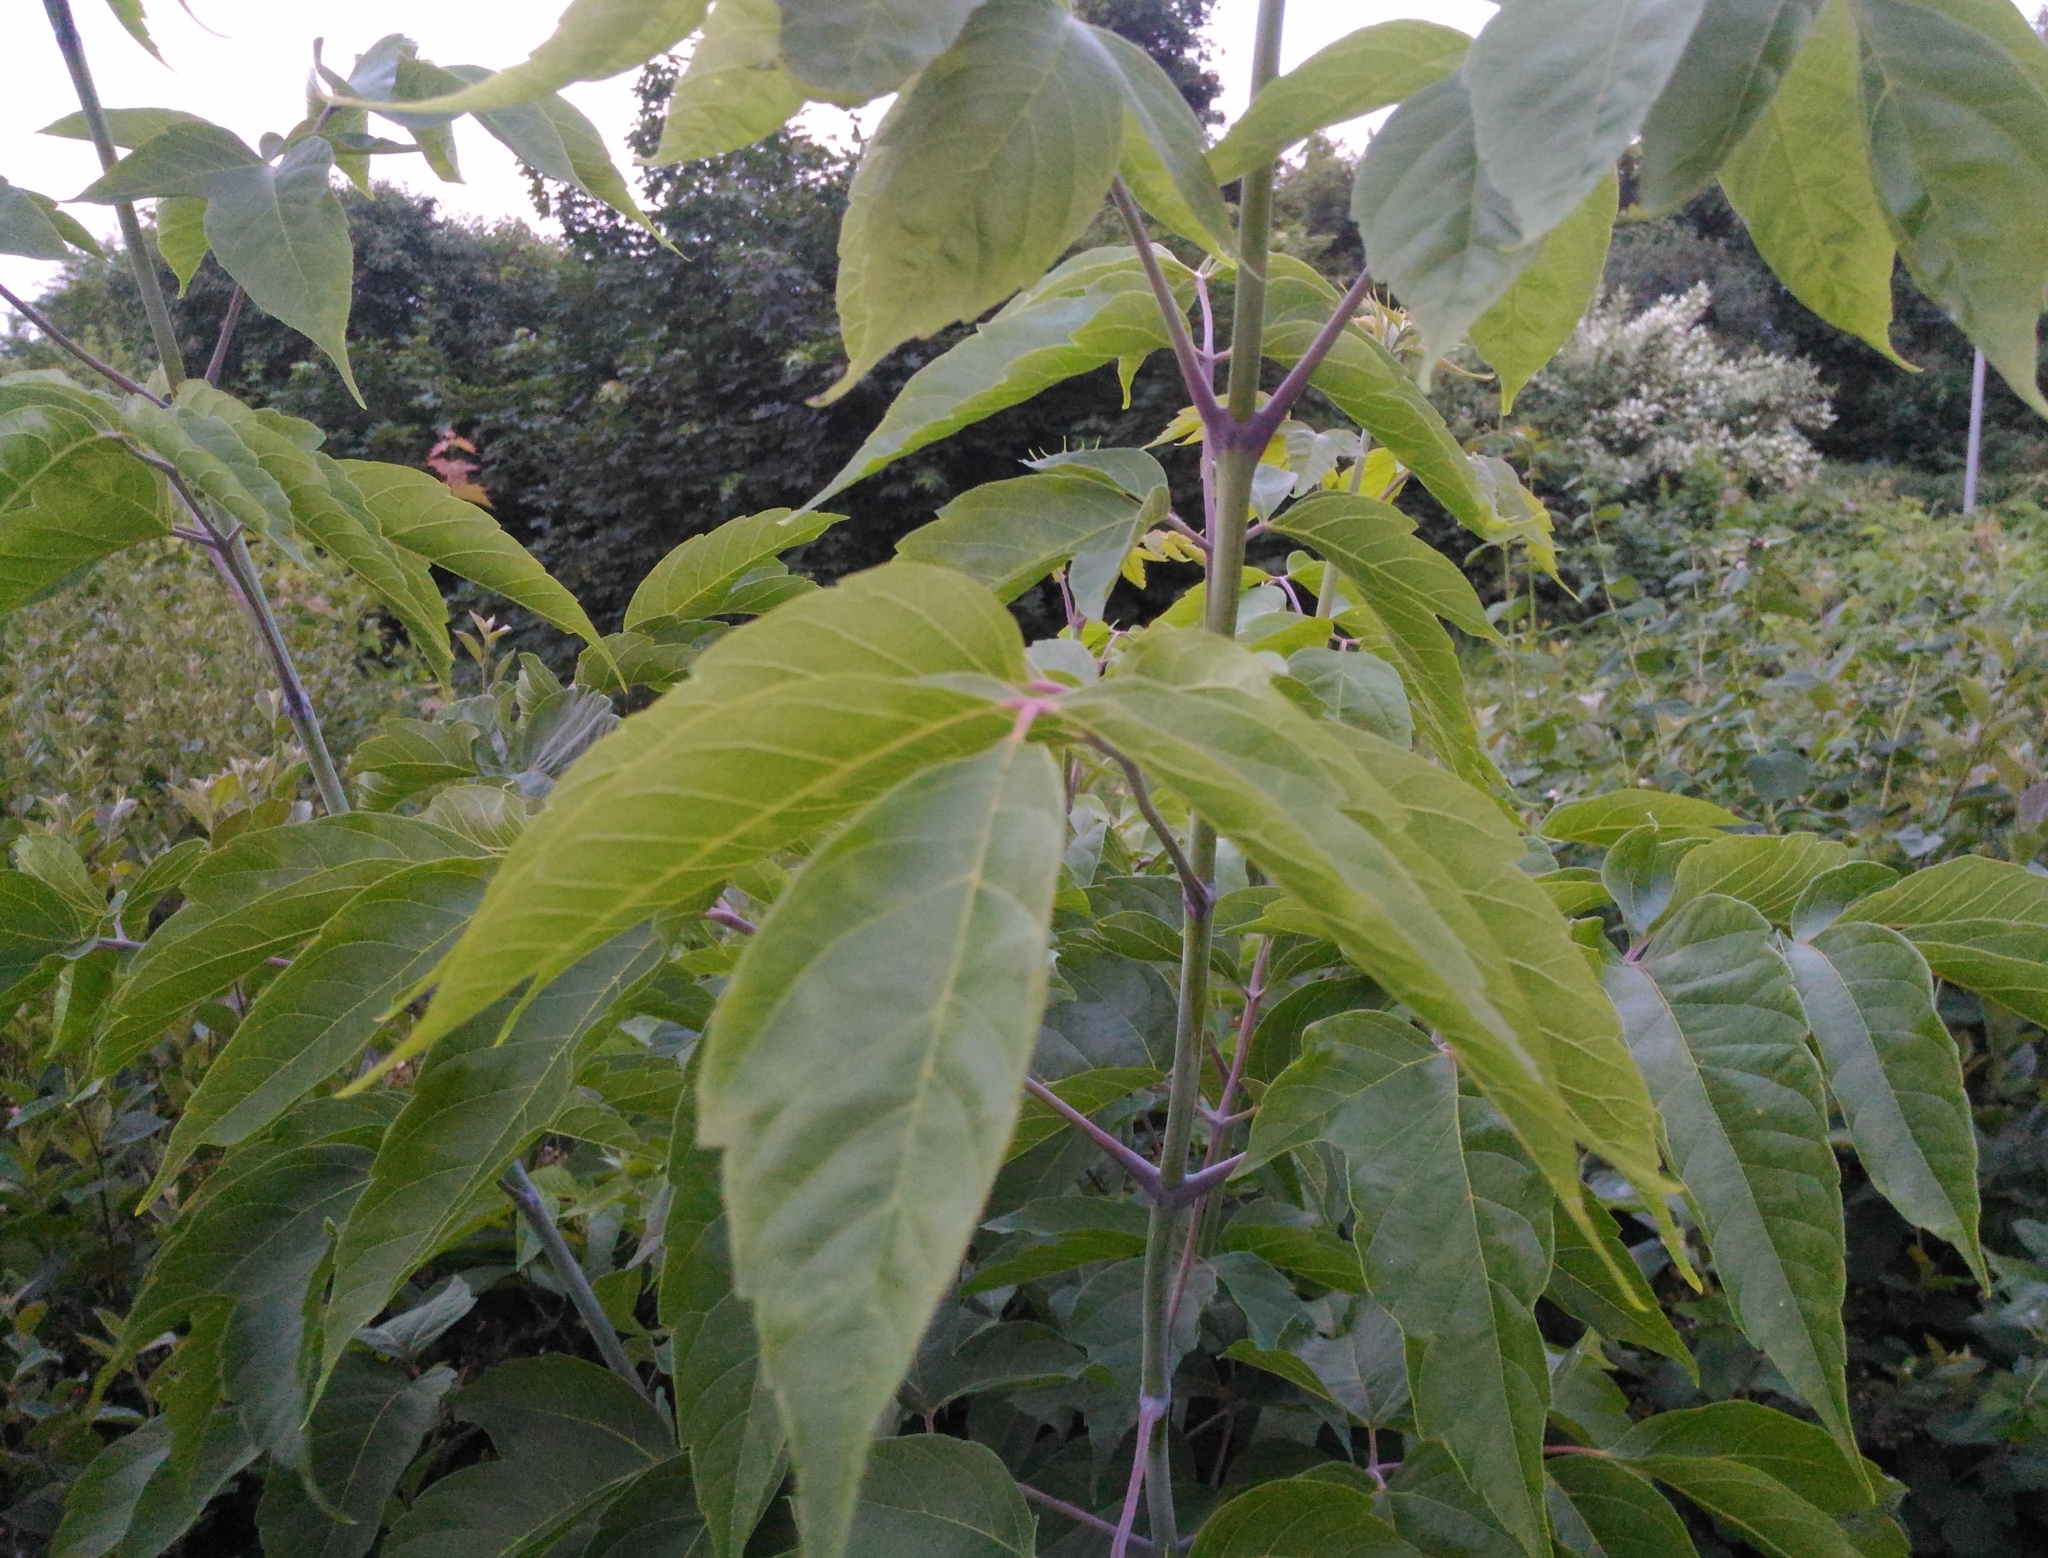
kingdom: Plantae
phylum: Tracheophyta
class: Magnoliopsida
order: Sapindales
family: Sapindaceae
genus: Acer
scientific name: Acer negundo
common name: Ashleaf maple
